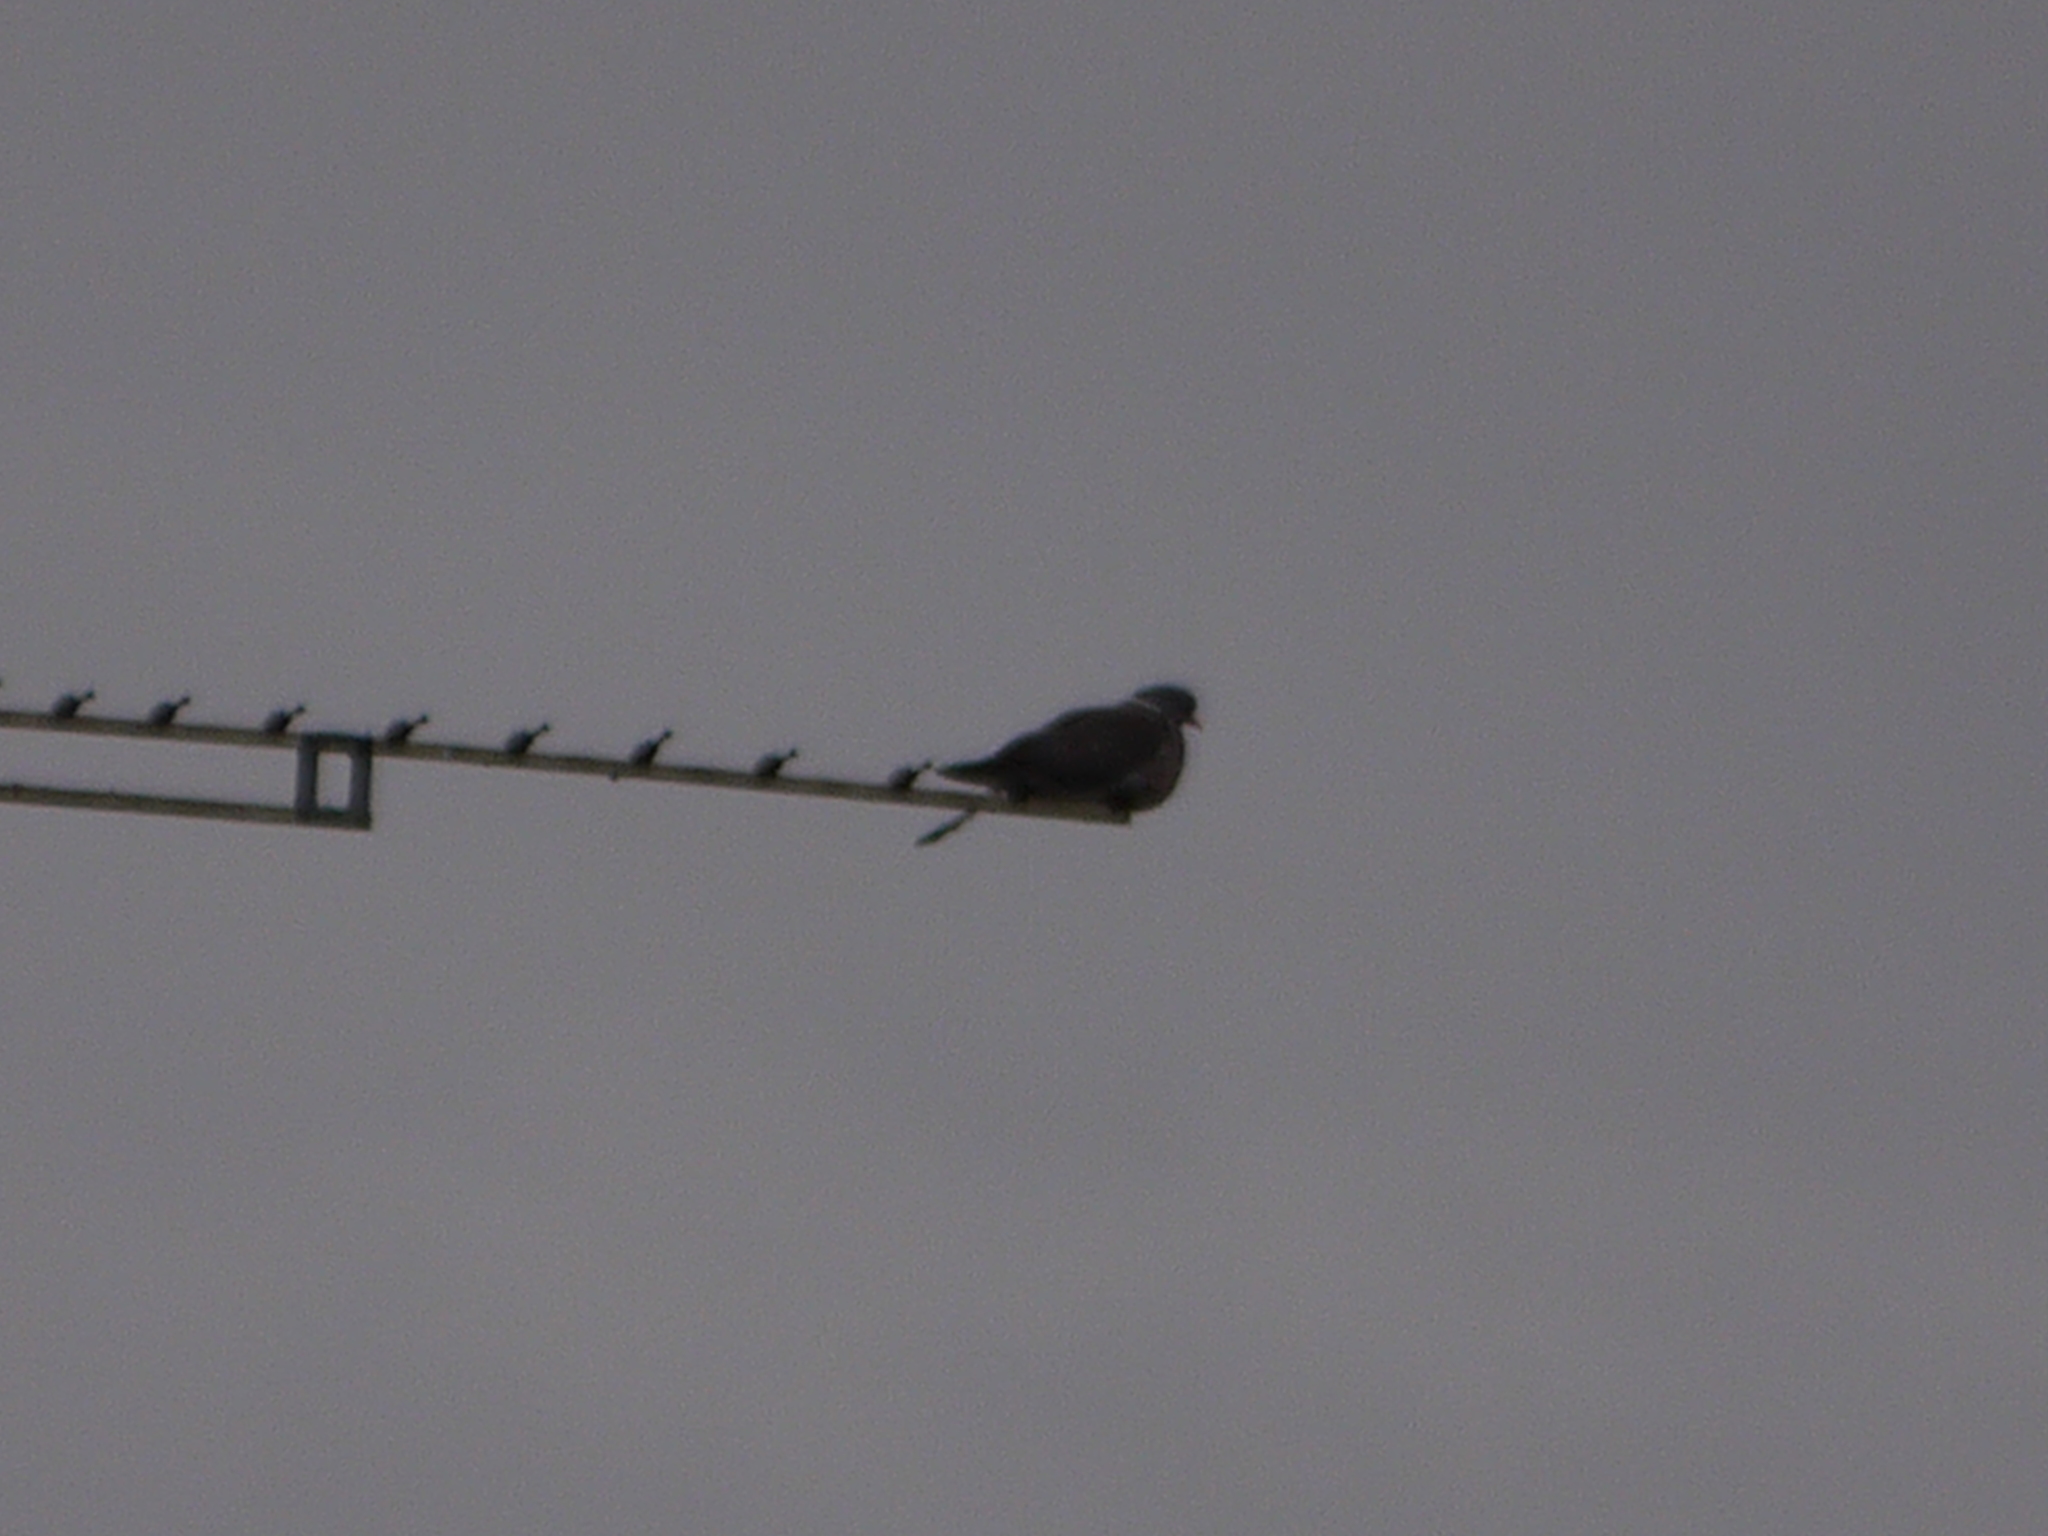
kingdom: Animalia
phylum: Chordata
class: Aves
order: Columbiformes
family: Columbidae
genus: Columba
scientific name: Columba palumbus
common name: Common wood pigeon
